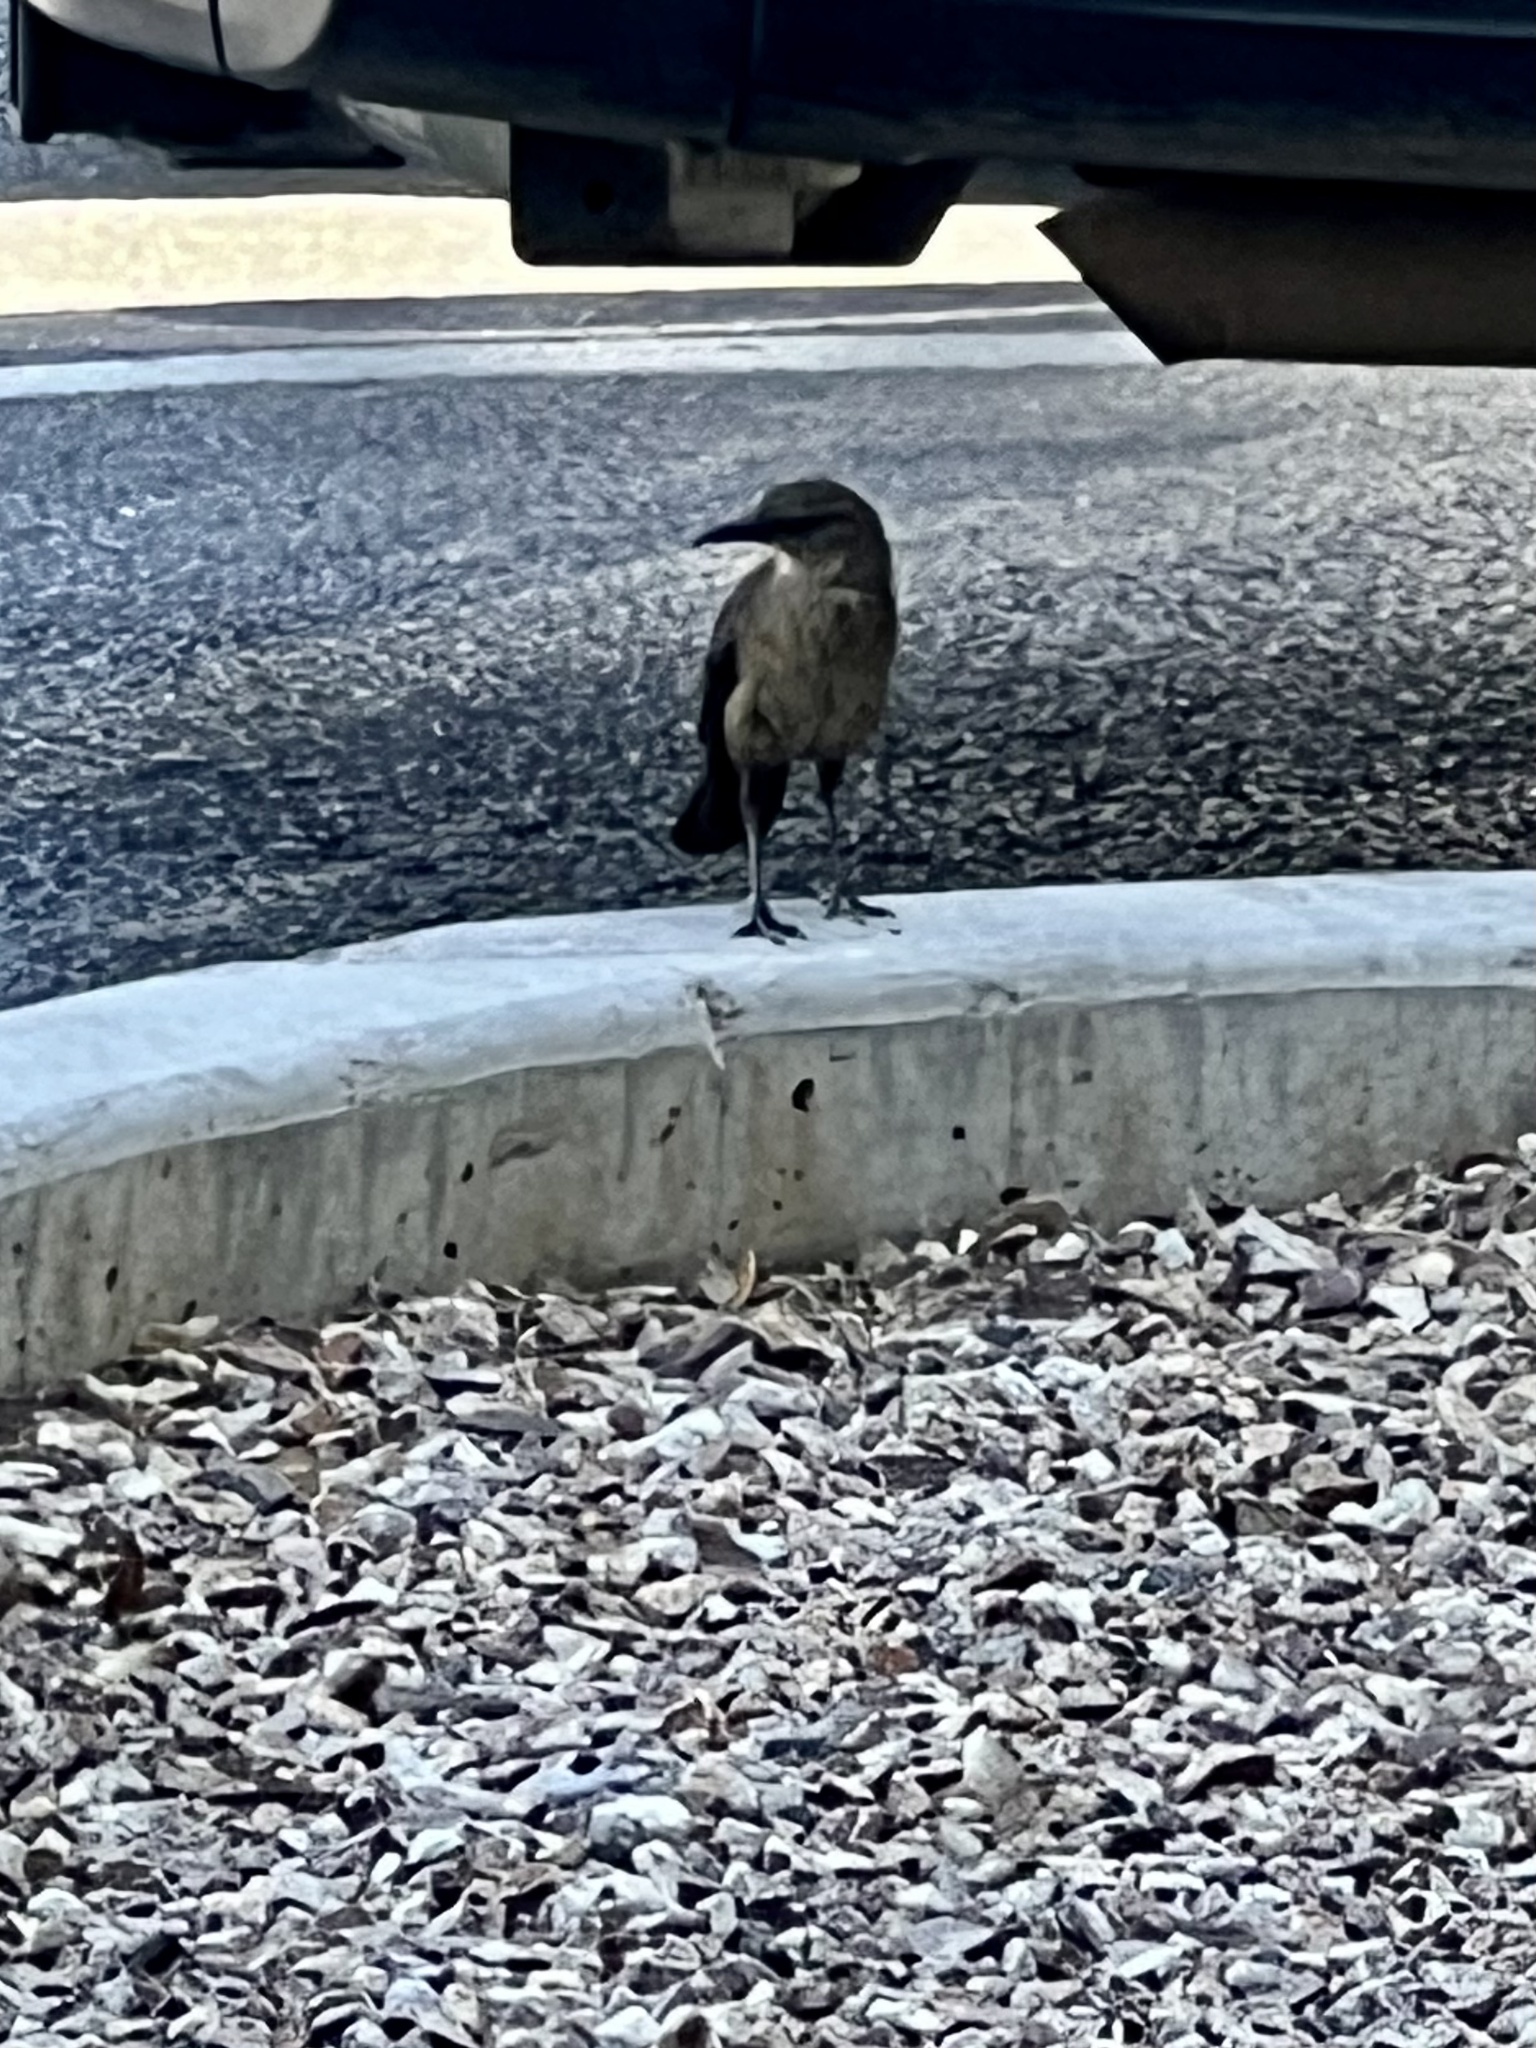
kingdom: Animalia
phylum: Chordata
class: Aves
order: Passeriformes
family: Icteridae
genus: Quiscalus
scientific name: Quiscalus mexicanus
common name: Great-tailed grackle
